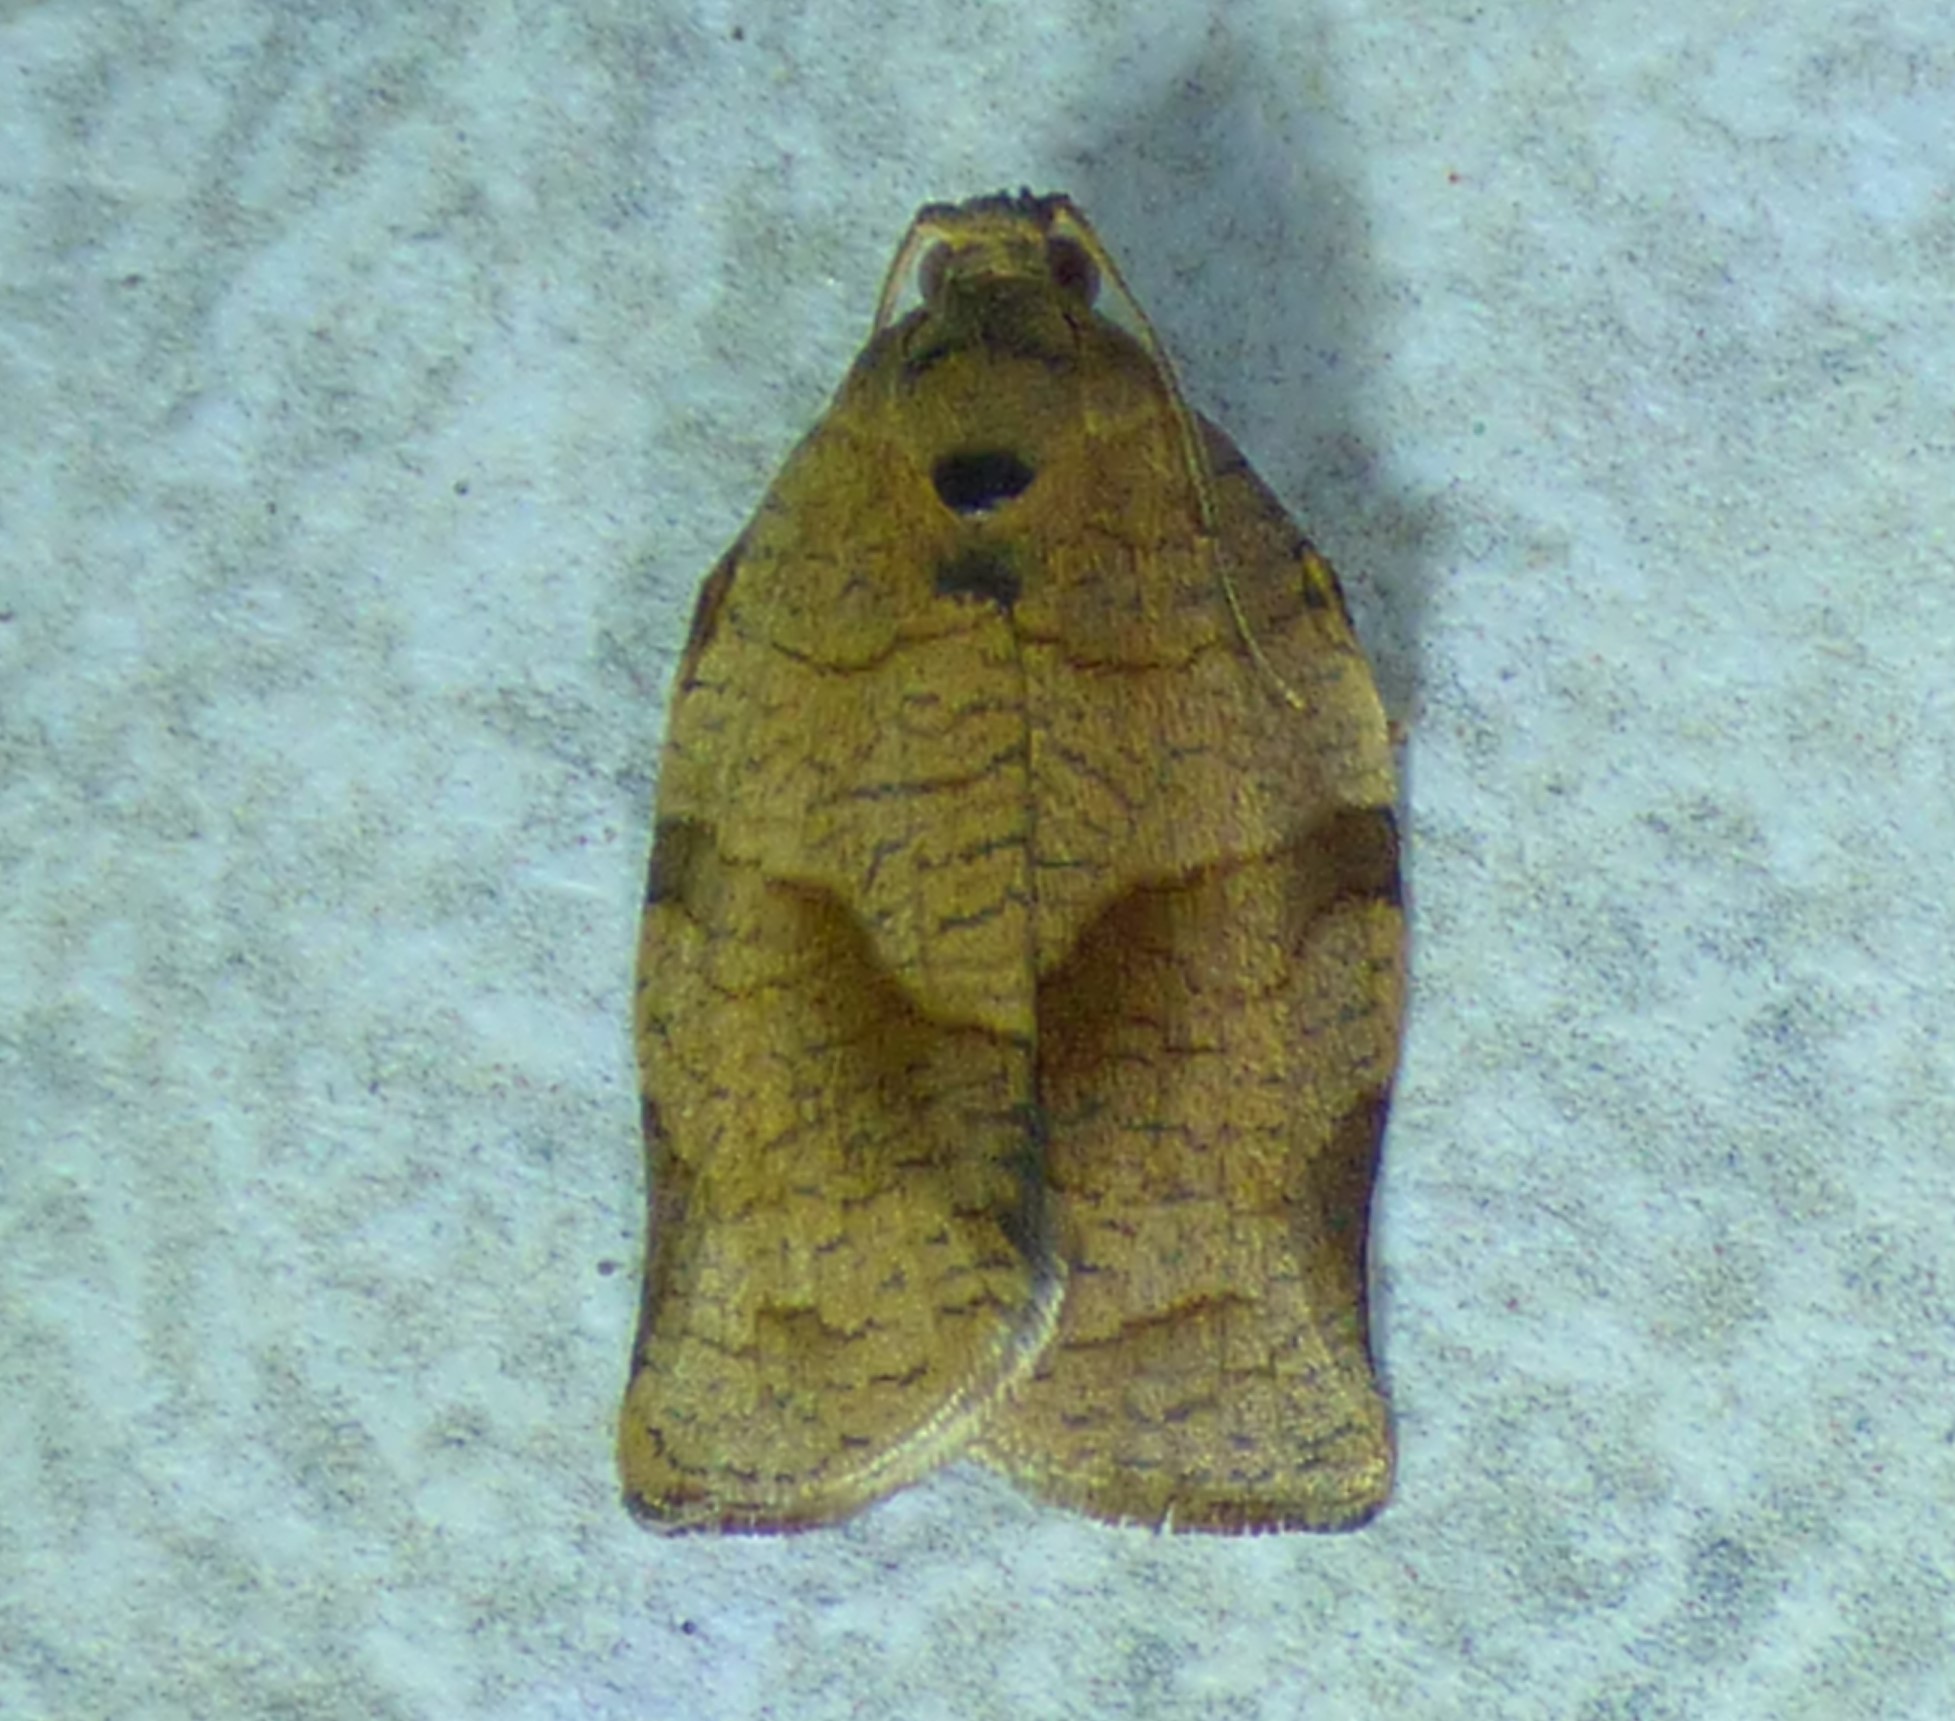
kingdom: Animalia
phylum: Arthropoda
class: Insecta
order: Lepidoptera
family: Tortricidae
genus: Choristoneura
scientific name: Choristoneura rosaceana
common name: Oblique-banded leafroller moth
